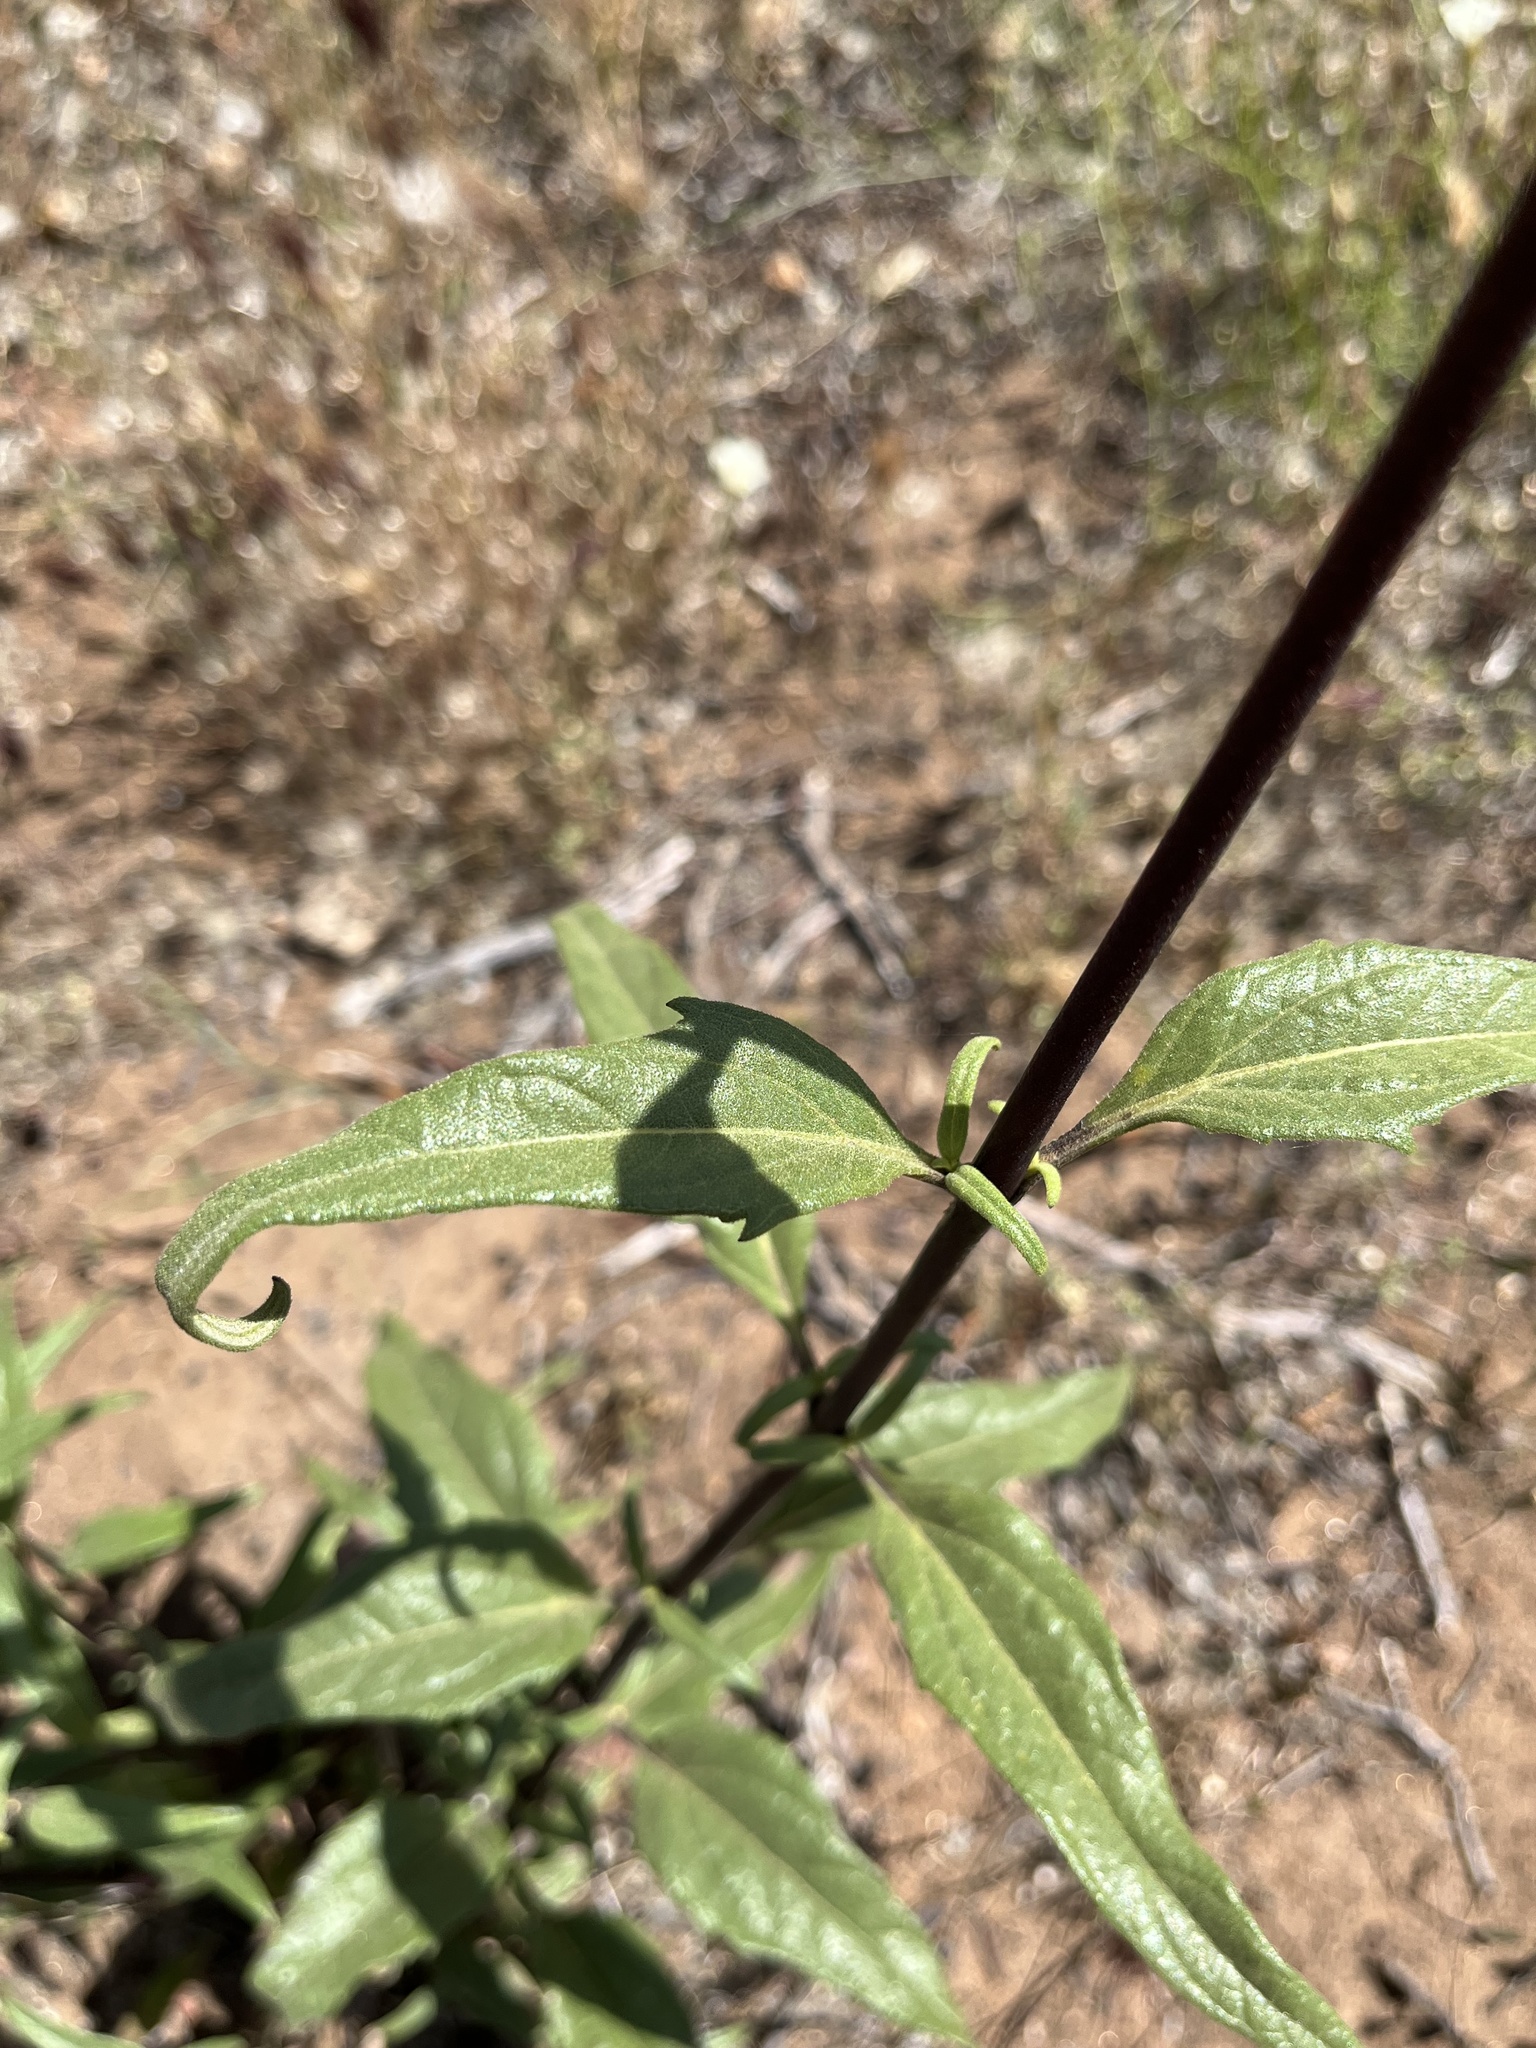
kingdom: Plantae
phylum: Tracheophyta
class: Magnoliopsida
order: Asterales
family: Asteraceae
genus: Helianthus
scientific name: Helianthus gracilentus
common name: Slender sunflower
